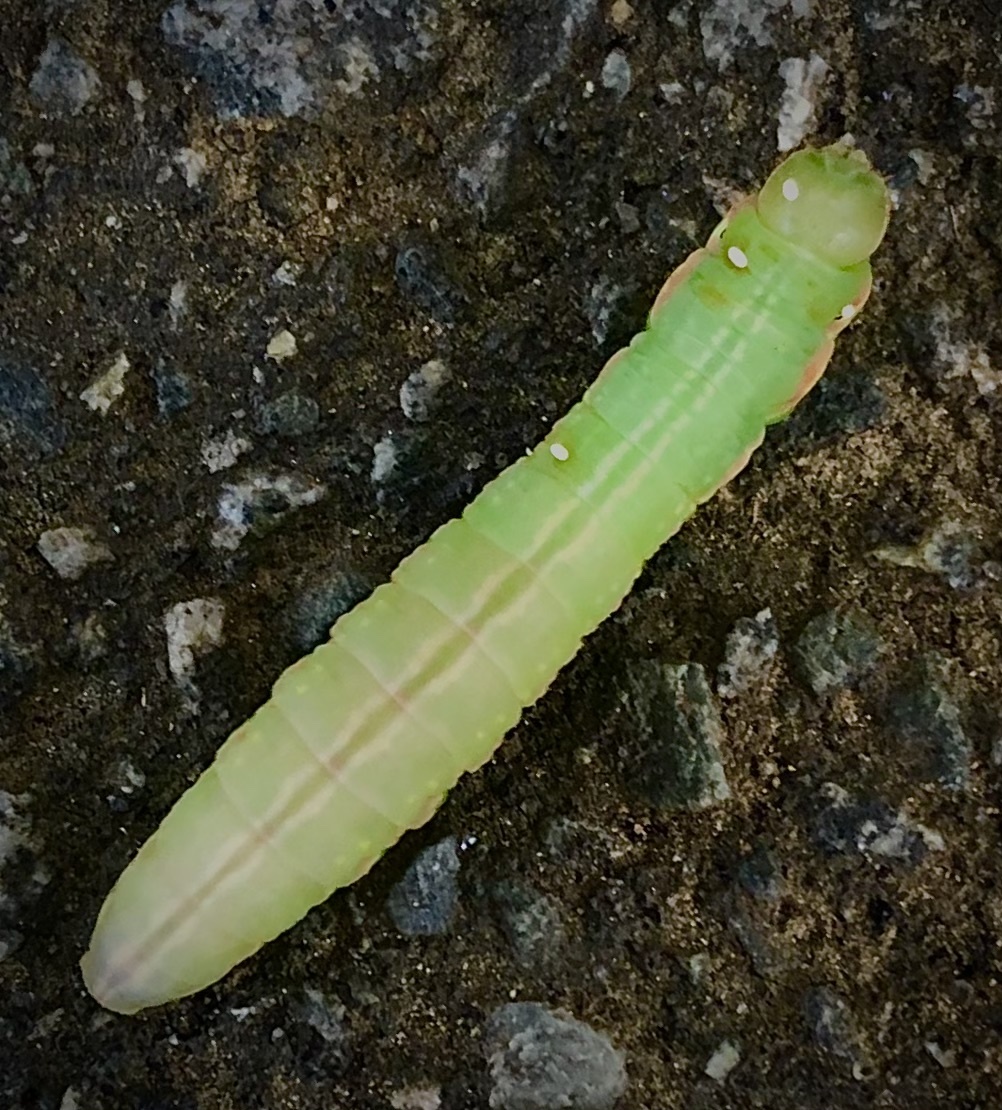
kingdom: Animalia
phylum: Arthropoda
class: Insecta
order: Lepidoptera
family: Notodontidae
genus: Peridea
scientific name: Peridea angulosa
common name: Angulose prominent
